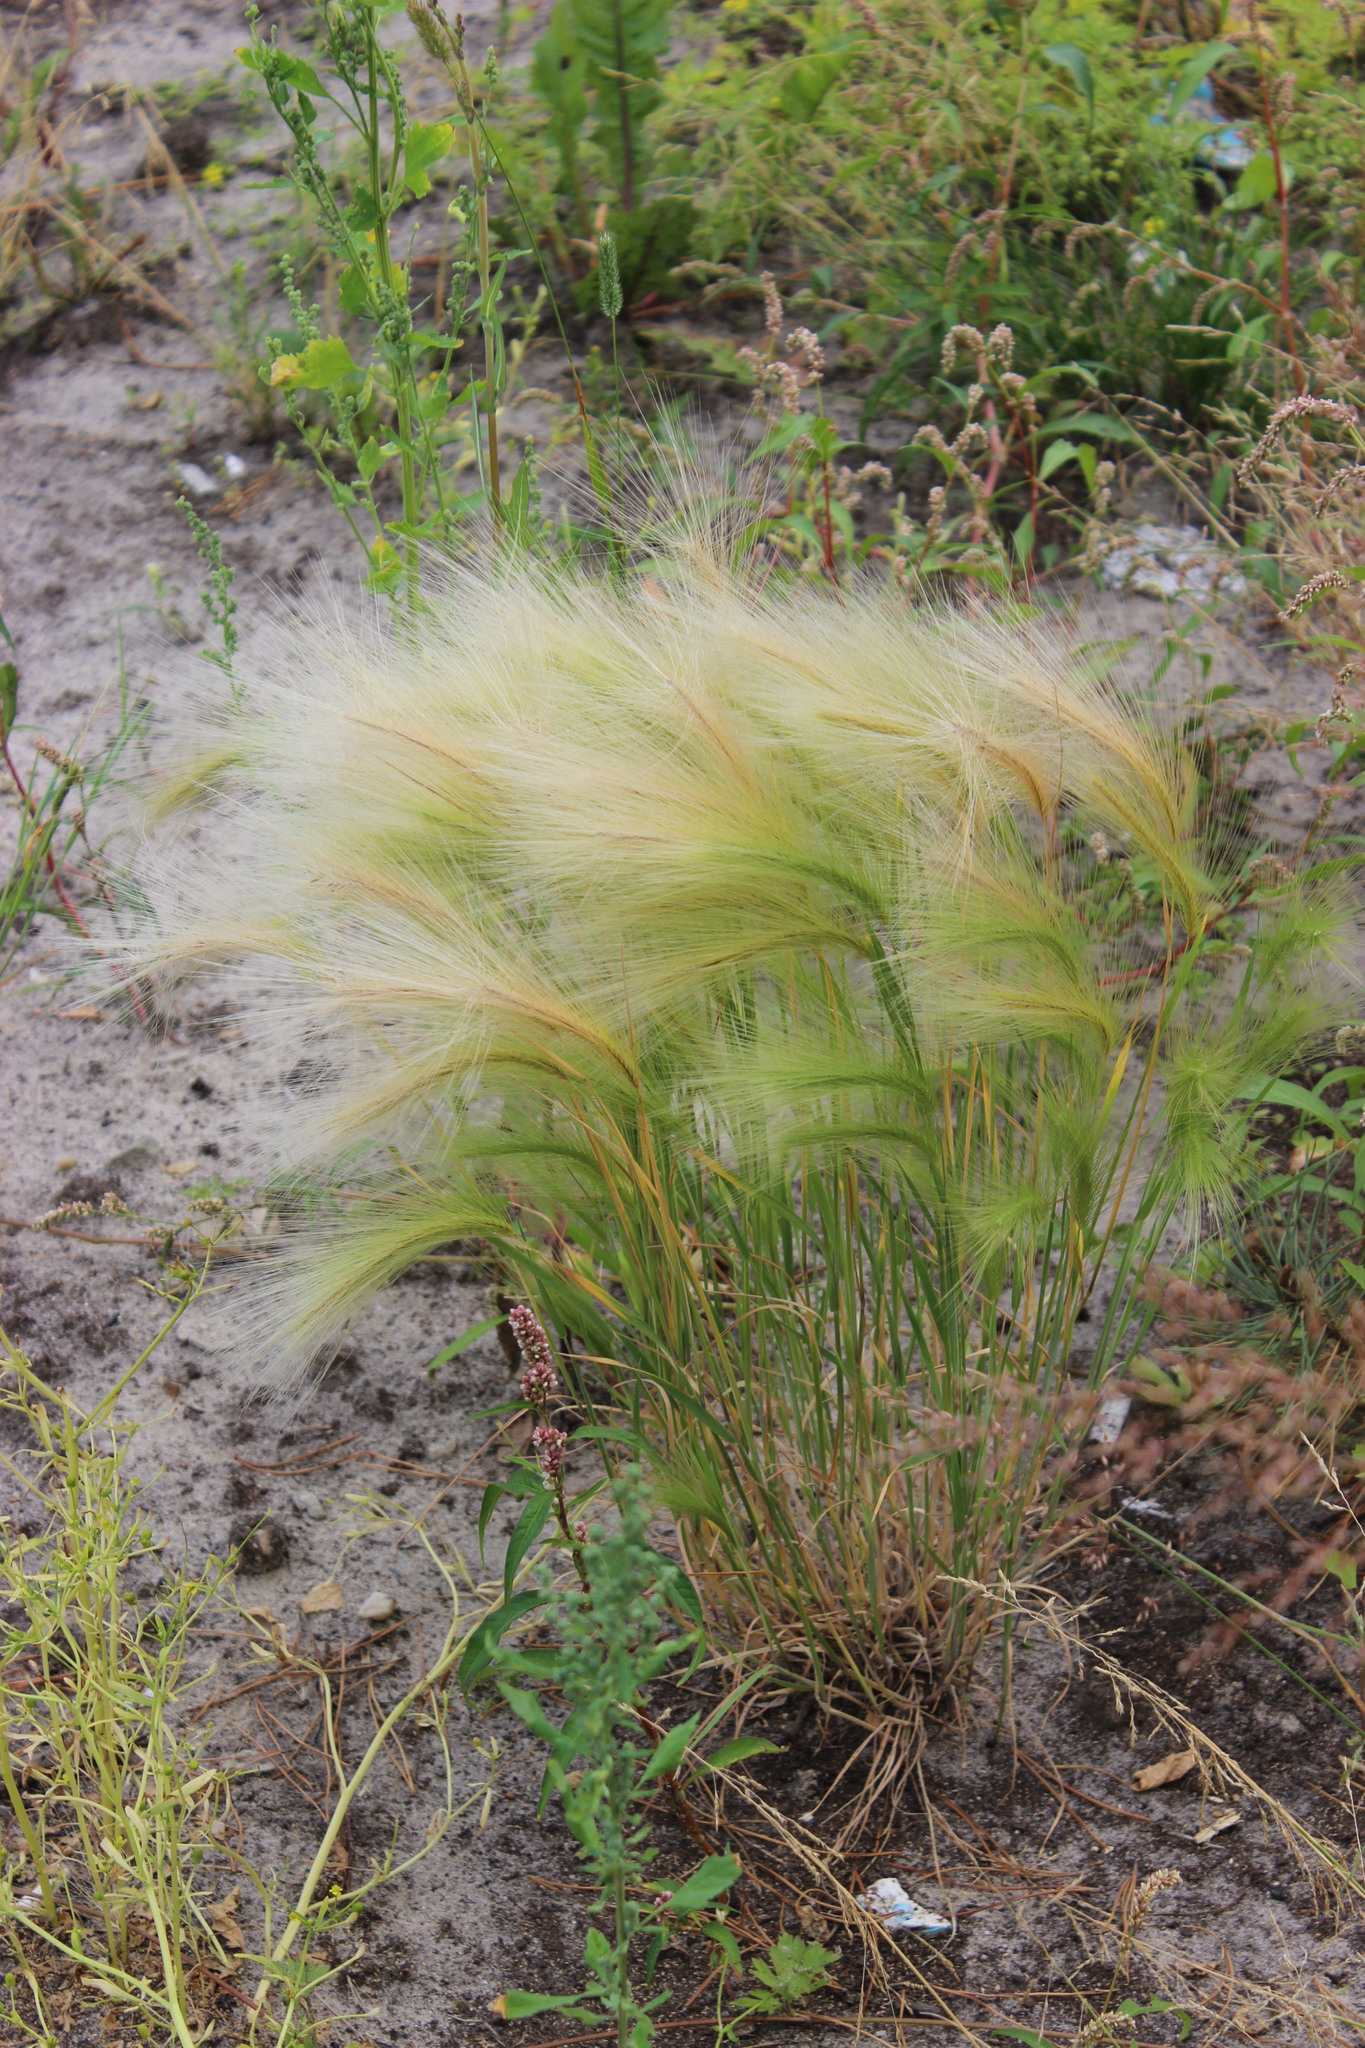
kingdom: Plantae
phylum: Tracheophyta
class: Liliopsida
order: Poales
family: Poaceae
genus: Hordeum
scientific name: Hordeum jubatum
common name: Foxtail barley
